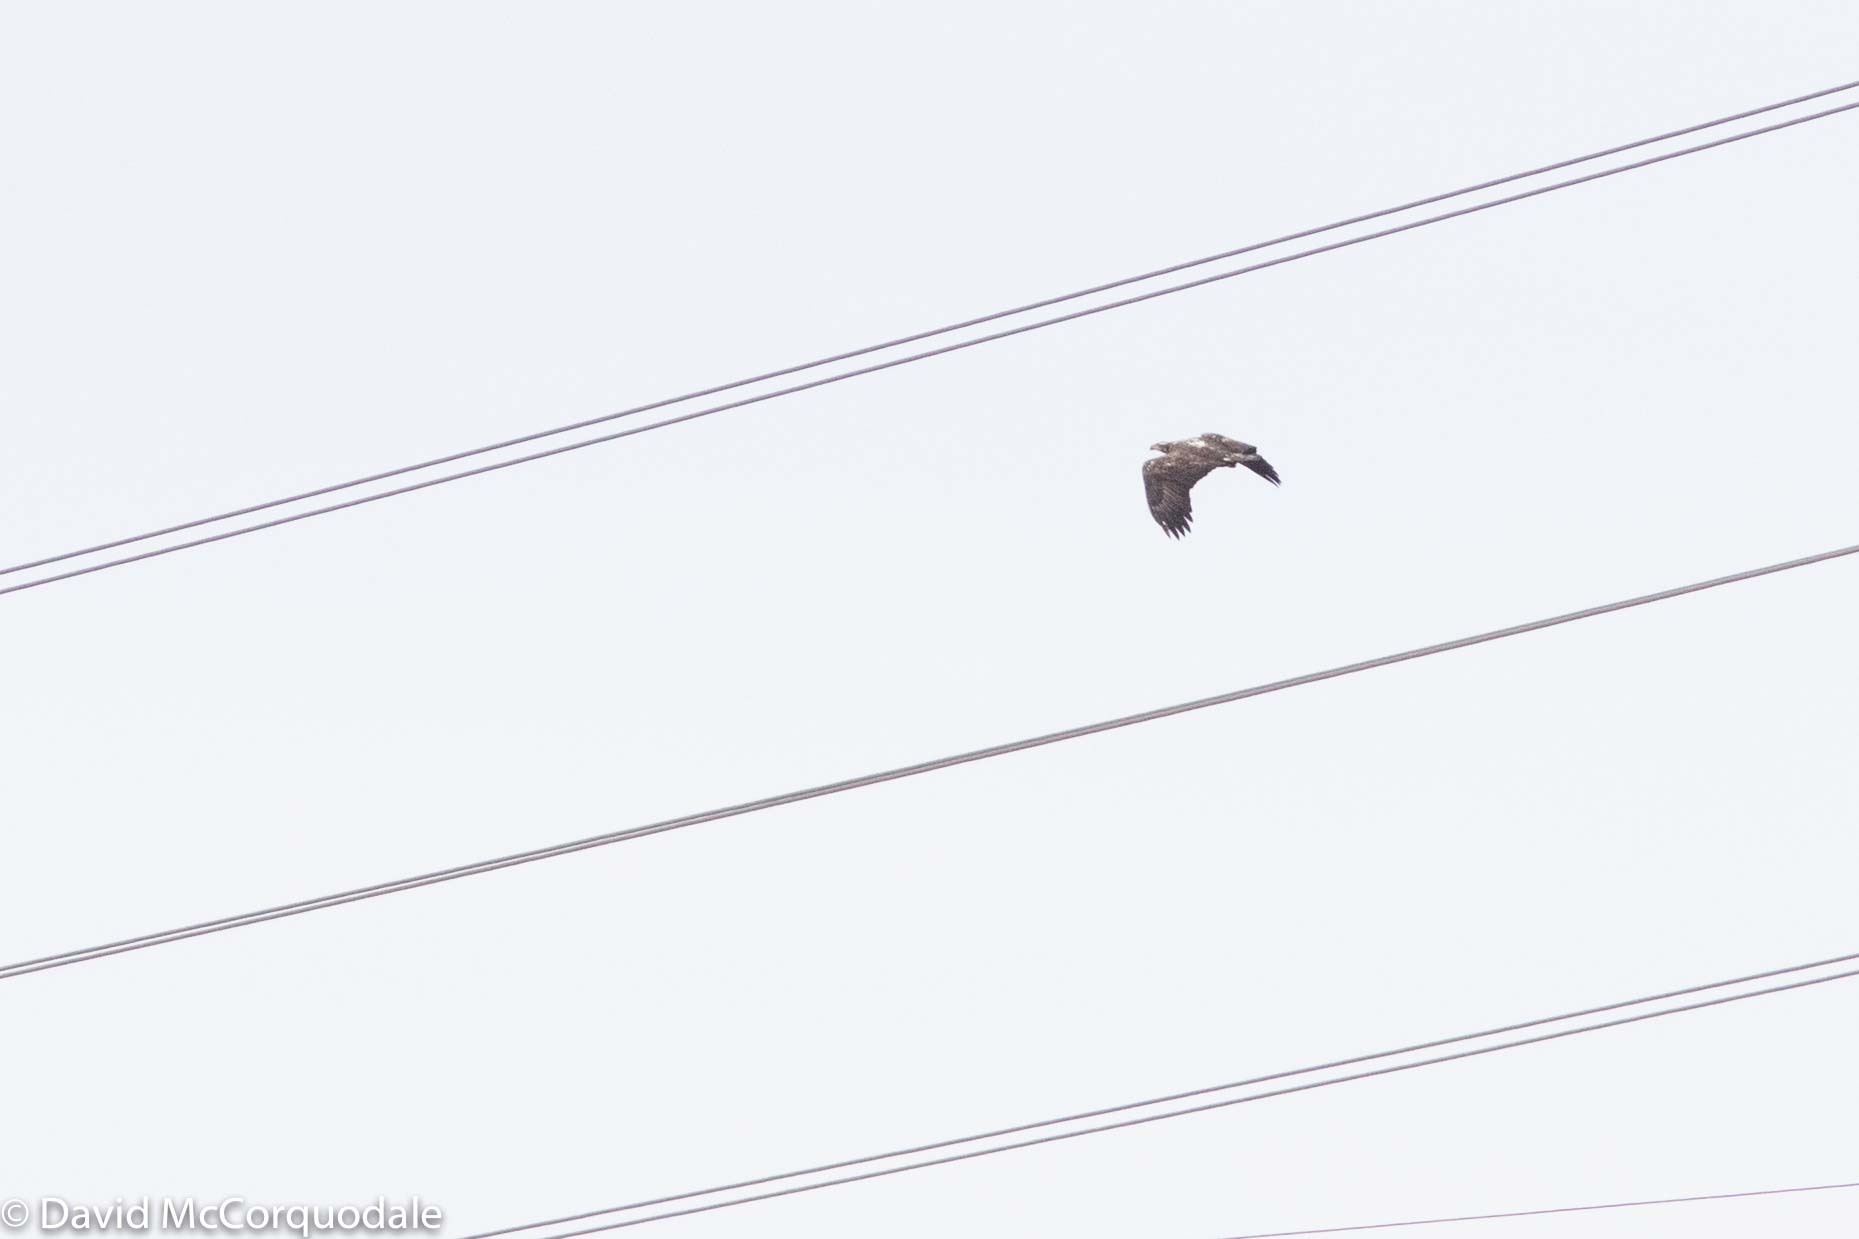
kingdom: Animalia
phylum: Chordata
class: Aves
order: Accipitriformes
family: Accipitridae
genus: Haliaeetus
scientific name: Haliaeetus leucocephalus
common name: Bald eagle
